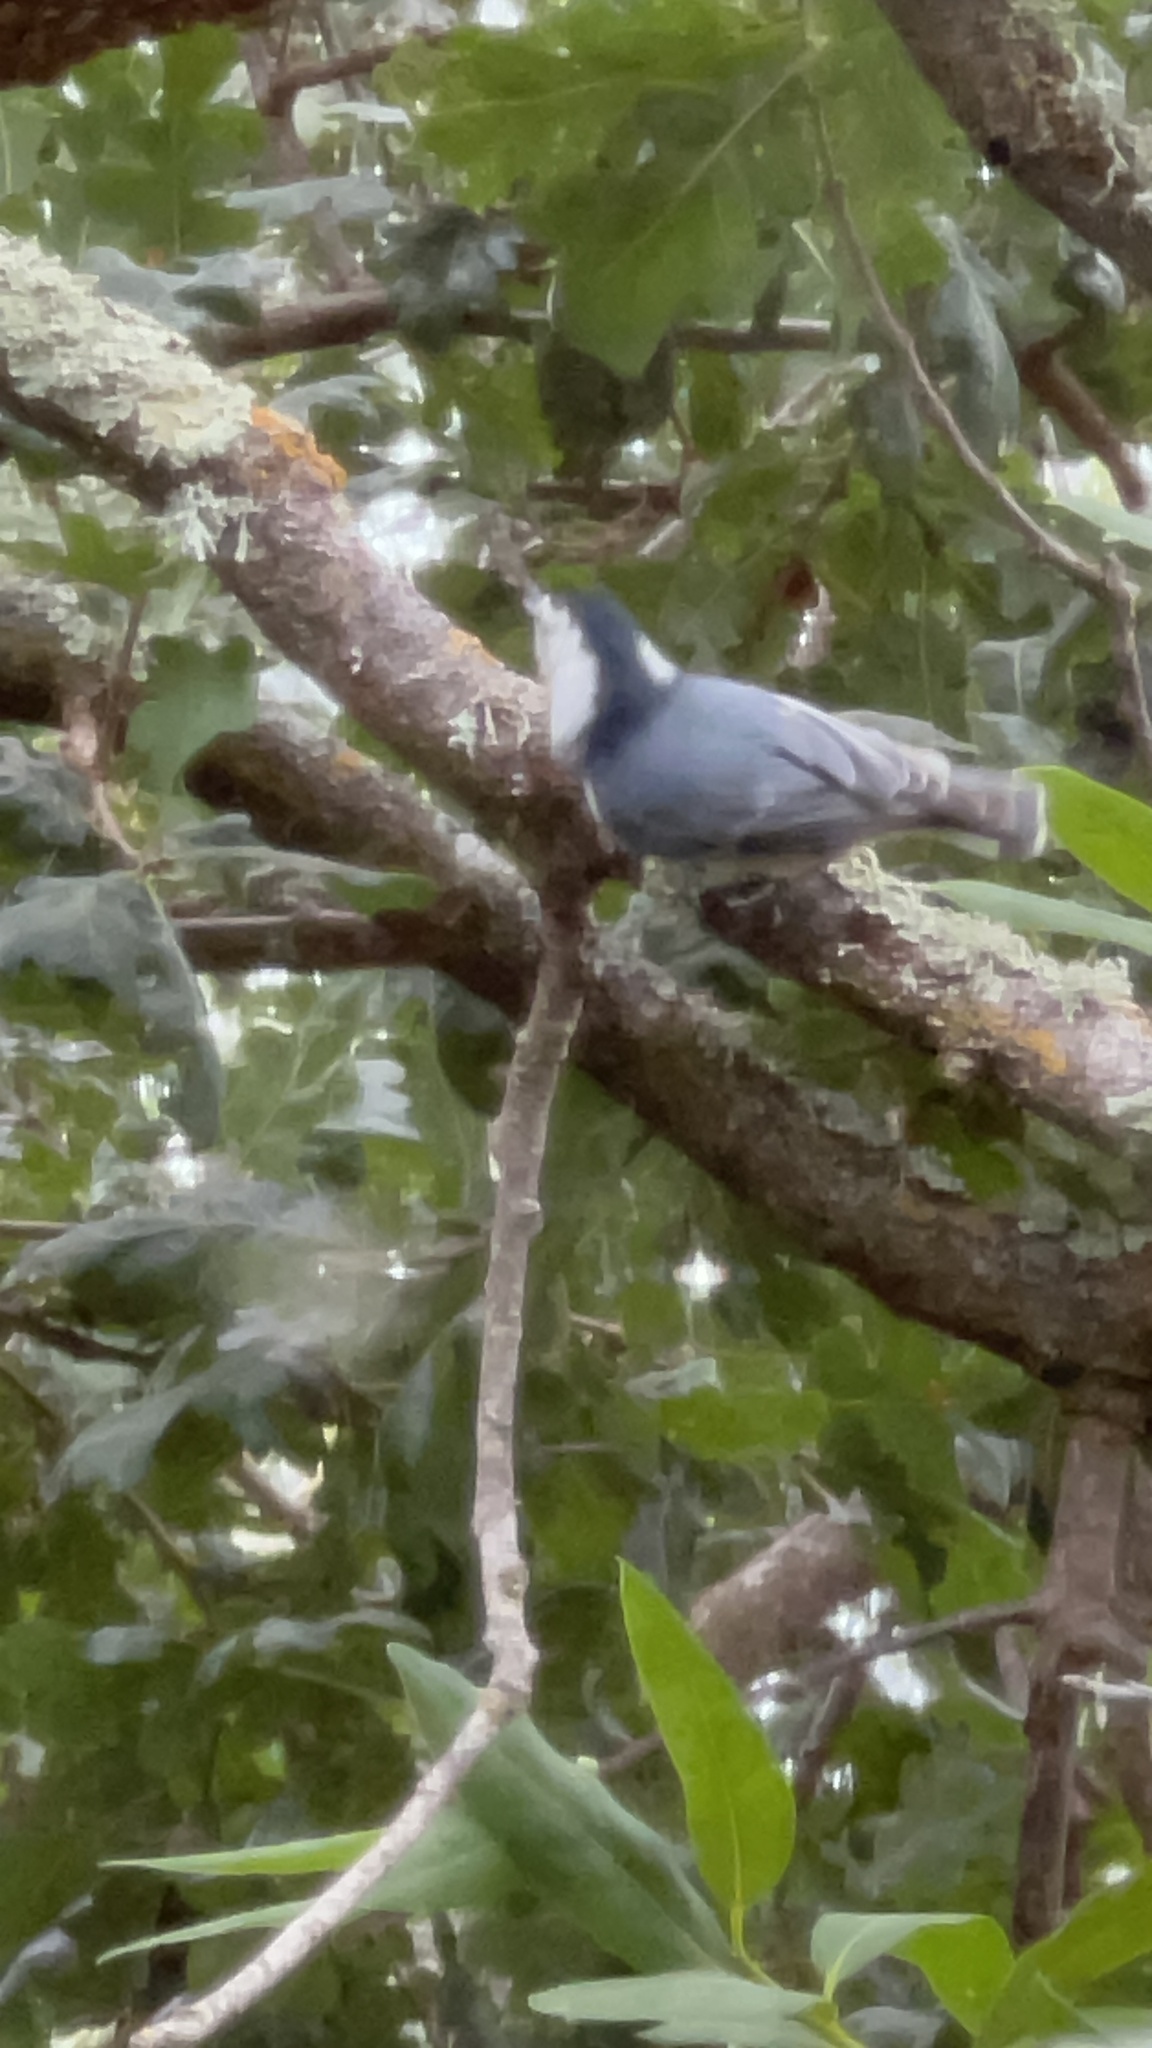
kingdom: Animalia
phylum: Chordata
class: Aves
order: Passeriformes
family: Sittidae
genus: Sitta
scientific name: Sitta carolinensis
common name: White-breasted nuthatch
